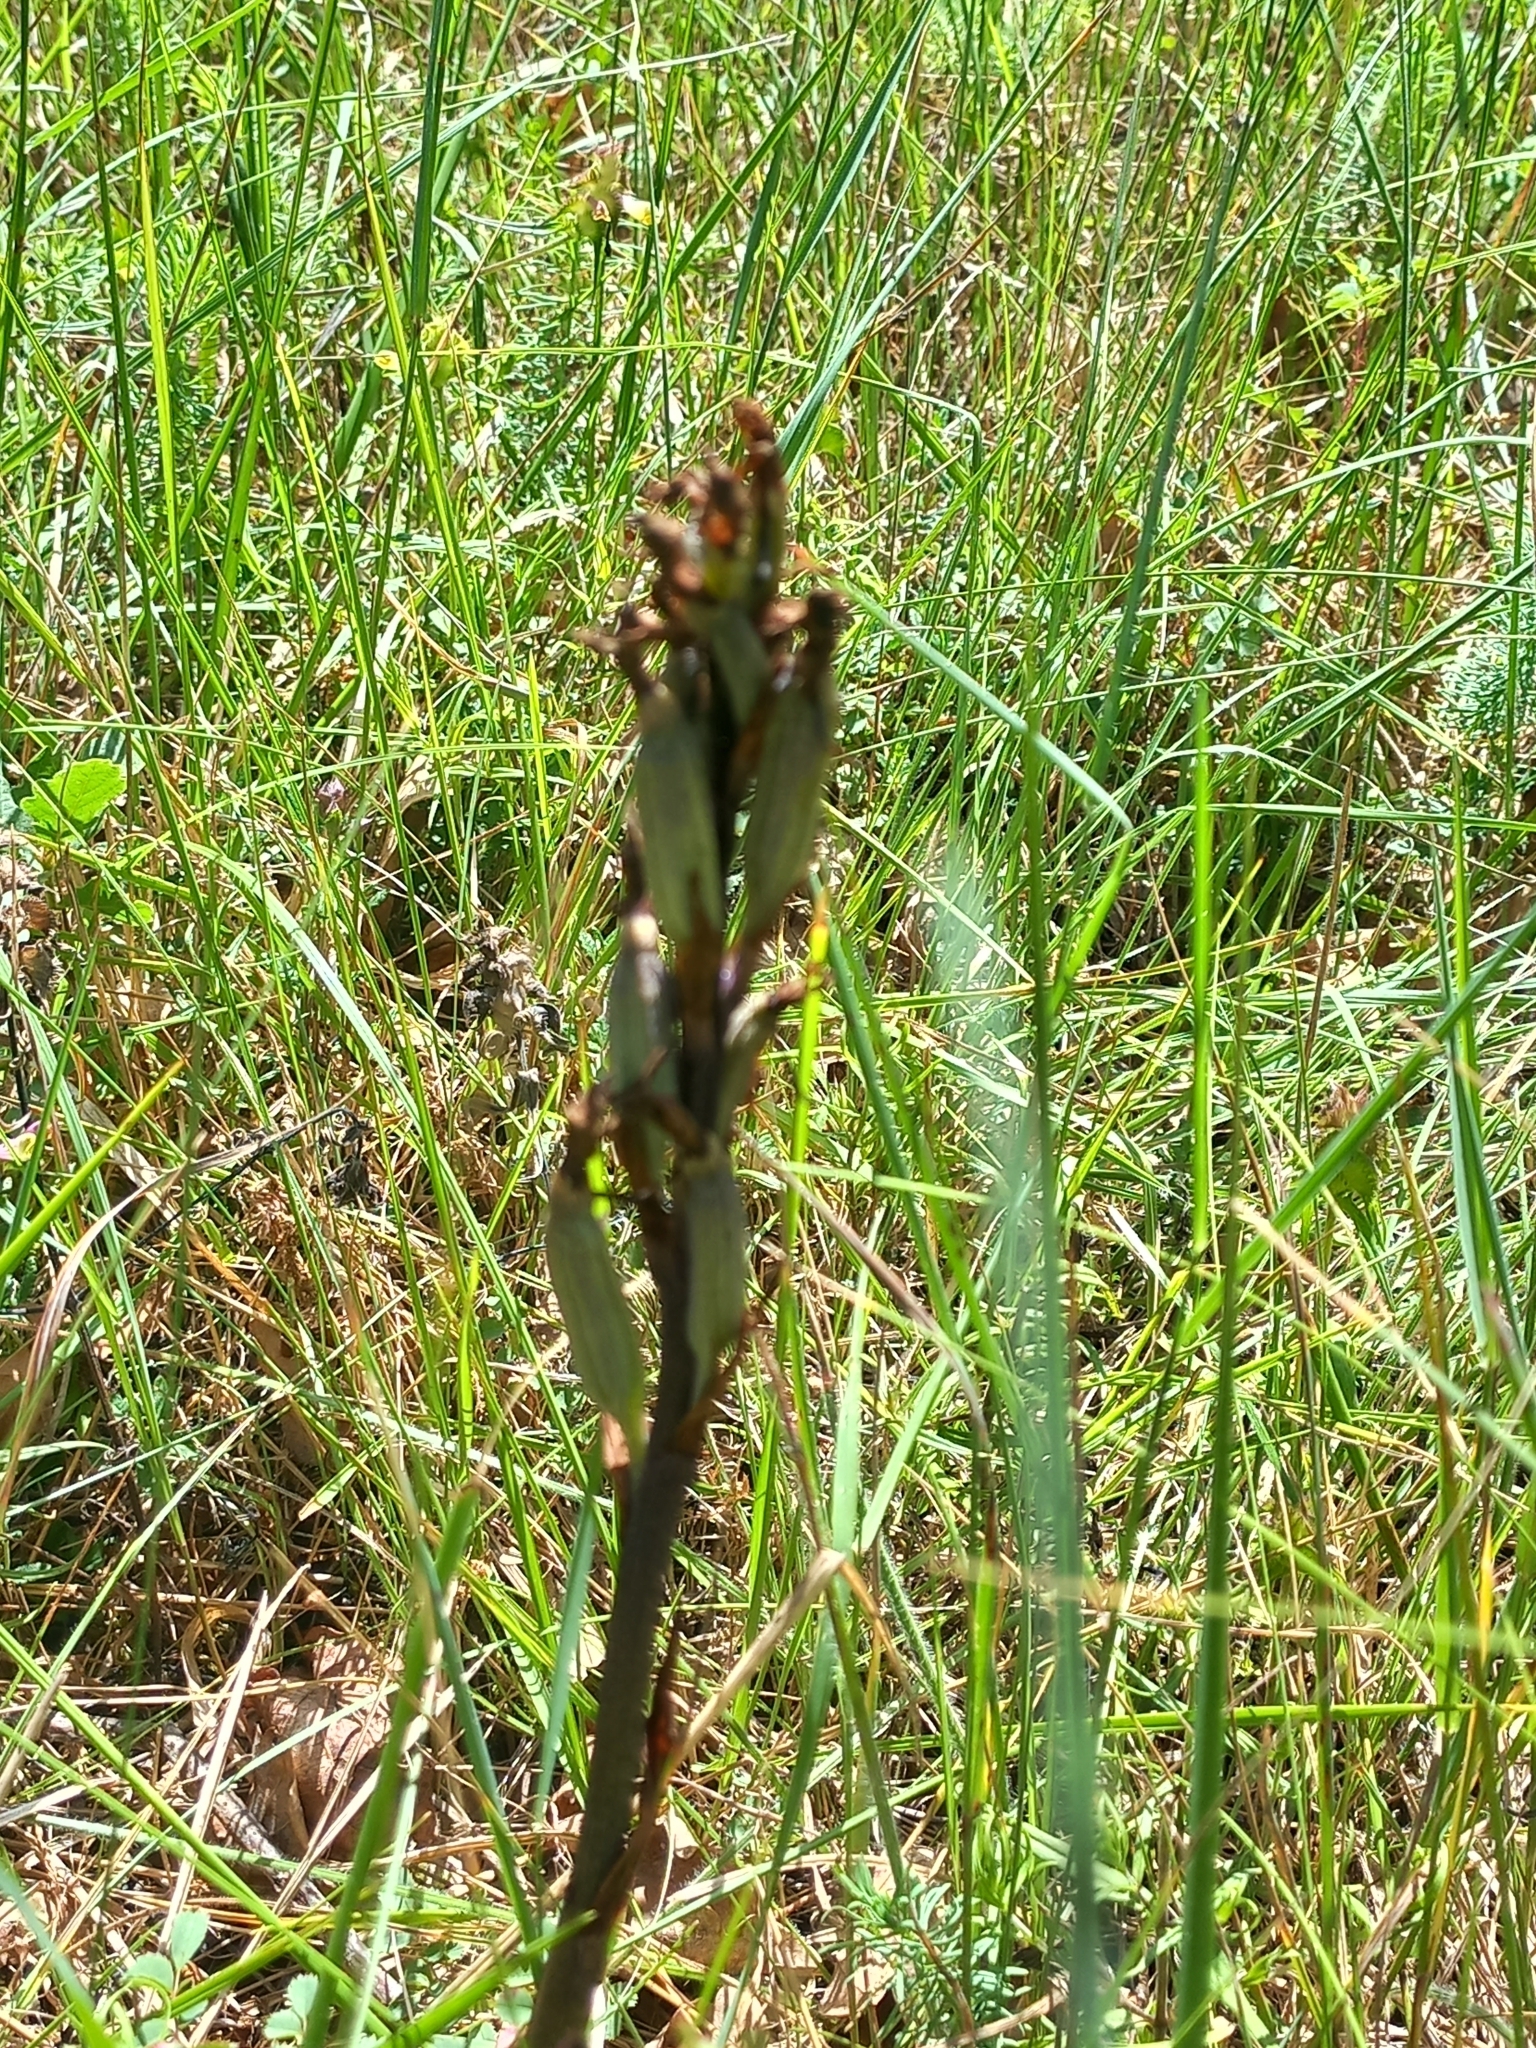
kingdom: Plantae
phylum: Tracheophyta
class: Liliopsida
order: Asparagales
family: Orchidaceae
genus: Limodorum
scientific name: Limodorum abortivum
